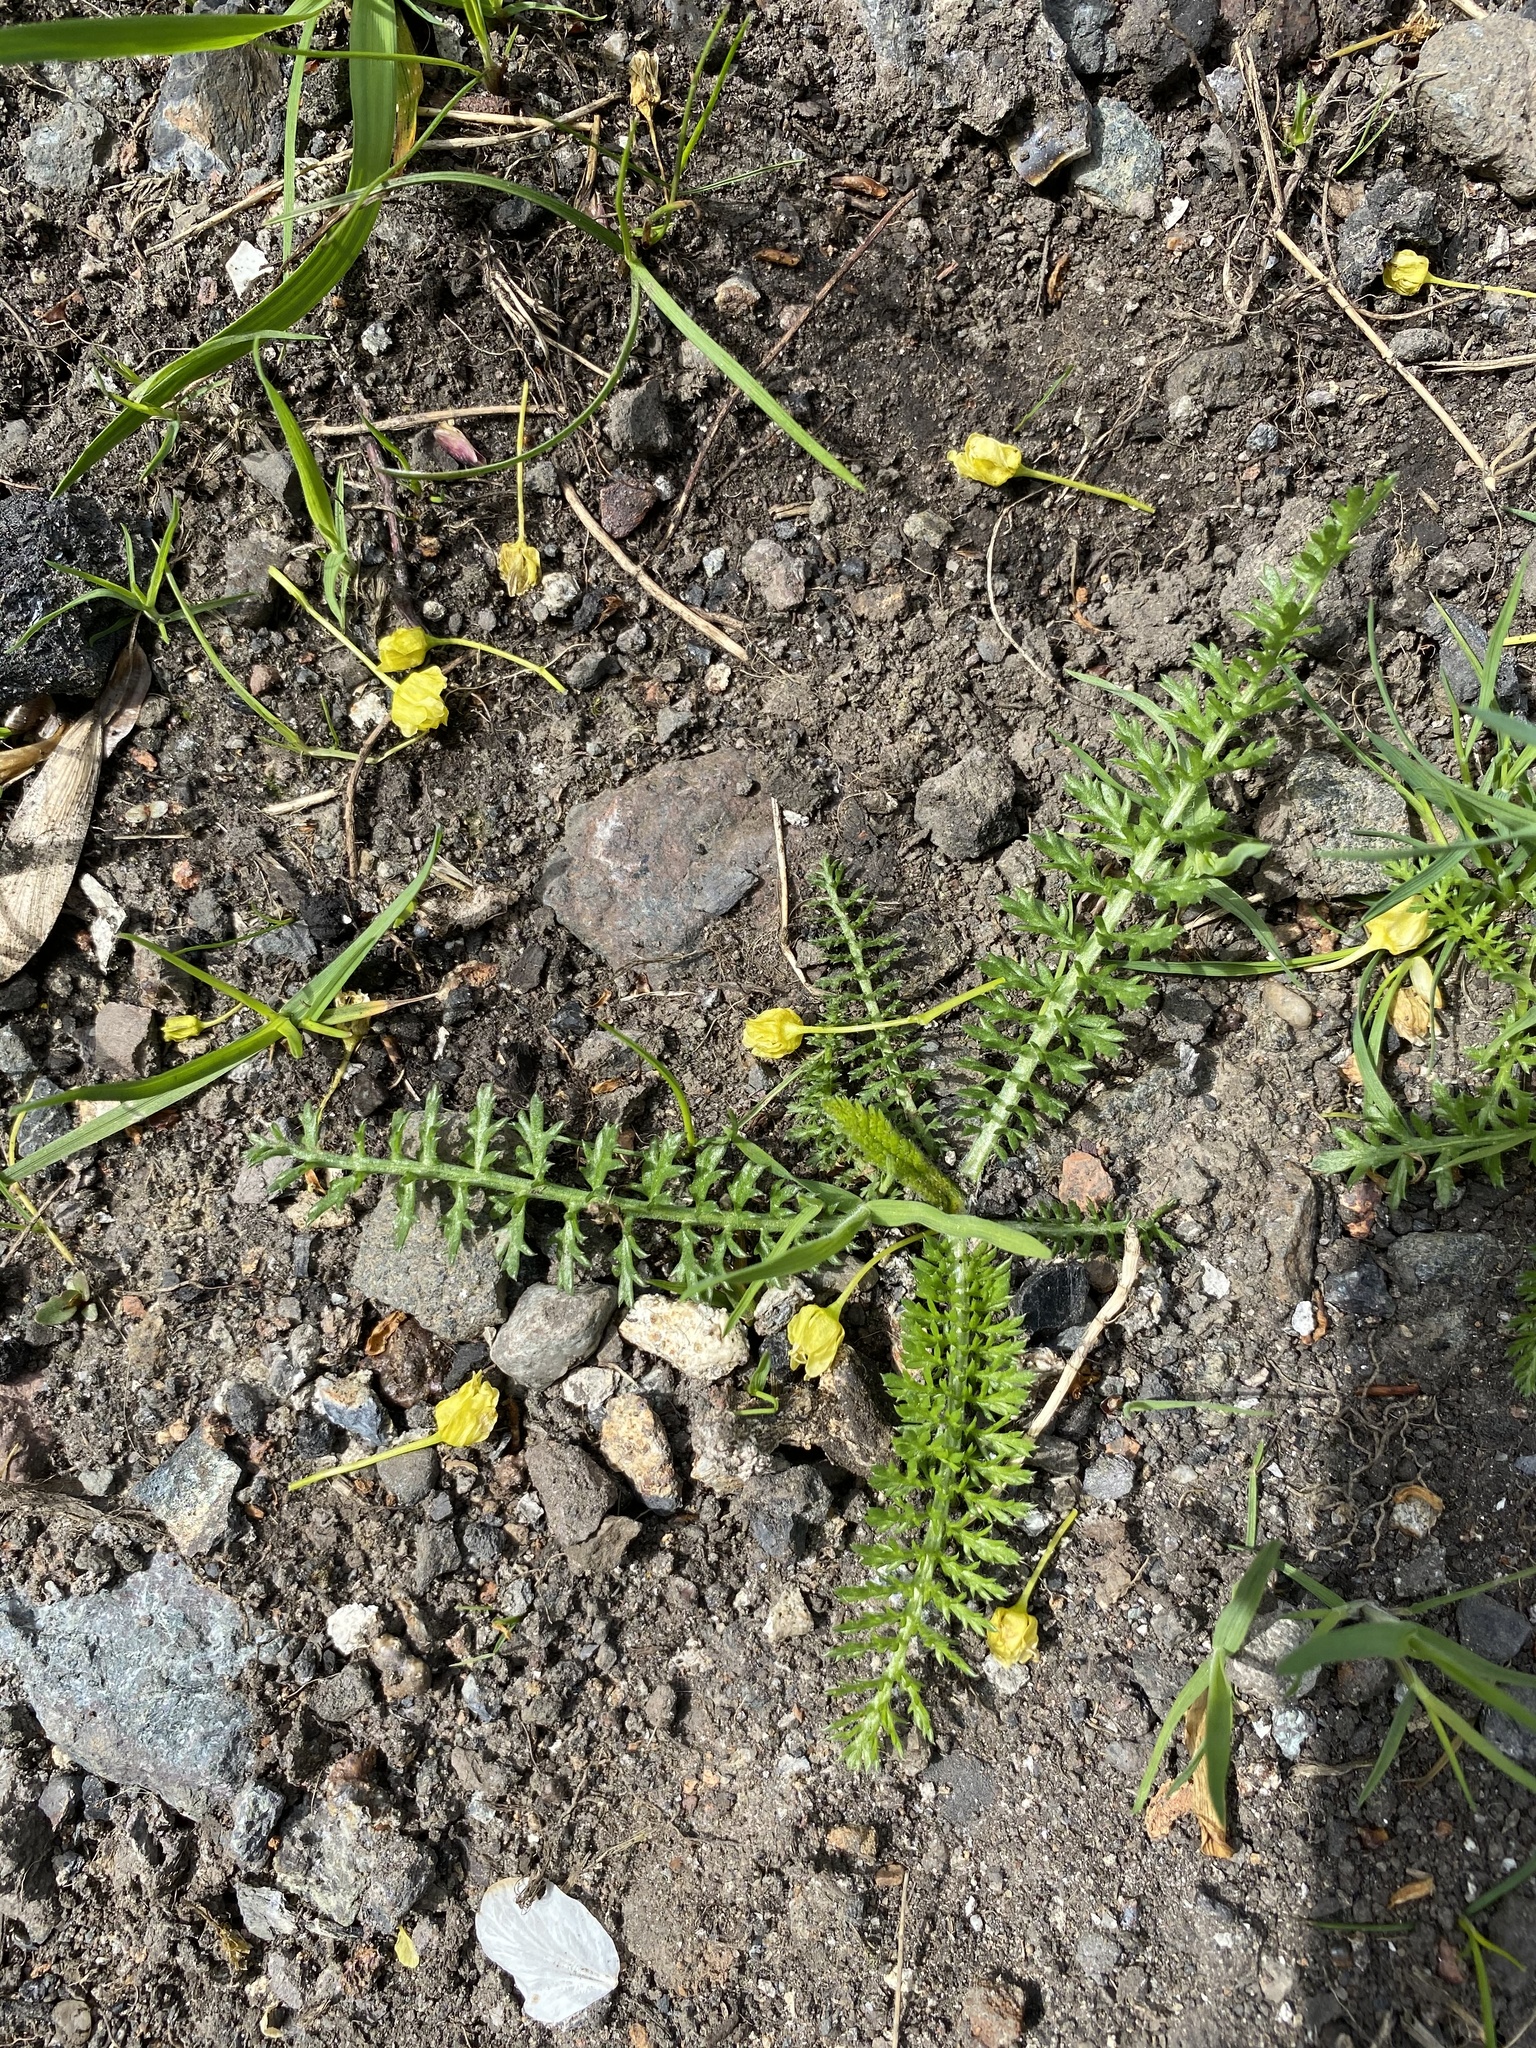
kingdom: Plantae
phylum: Tracheophyta
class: Magnoliopsida
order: Asterales
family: Asteraceae
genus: Achillea
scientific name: Achillea millefolium
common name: Yarrow
